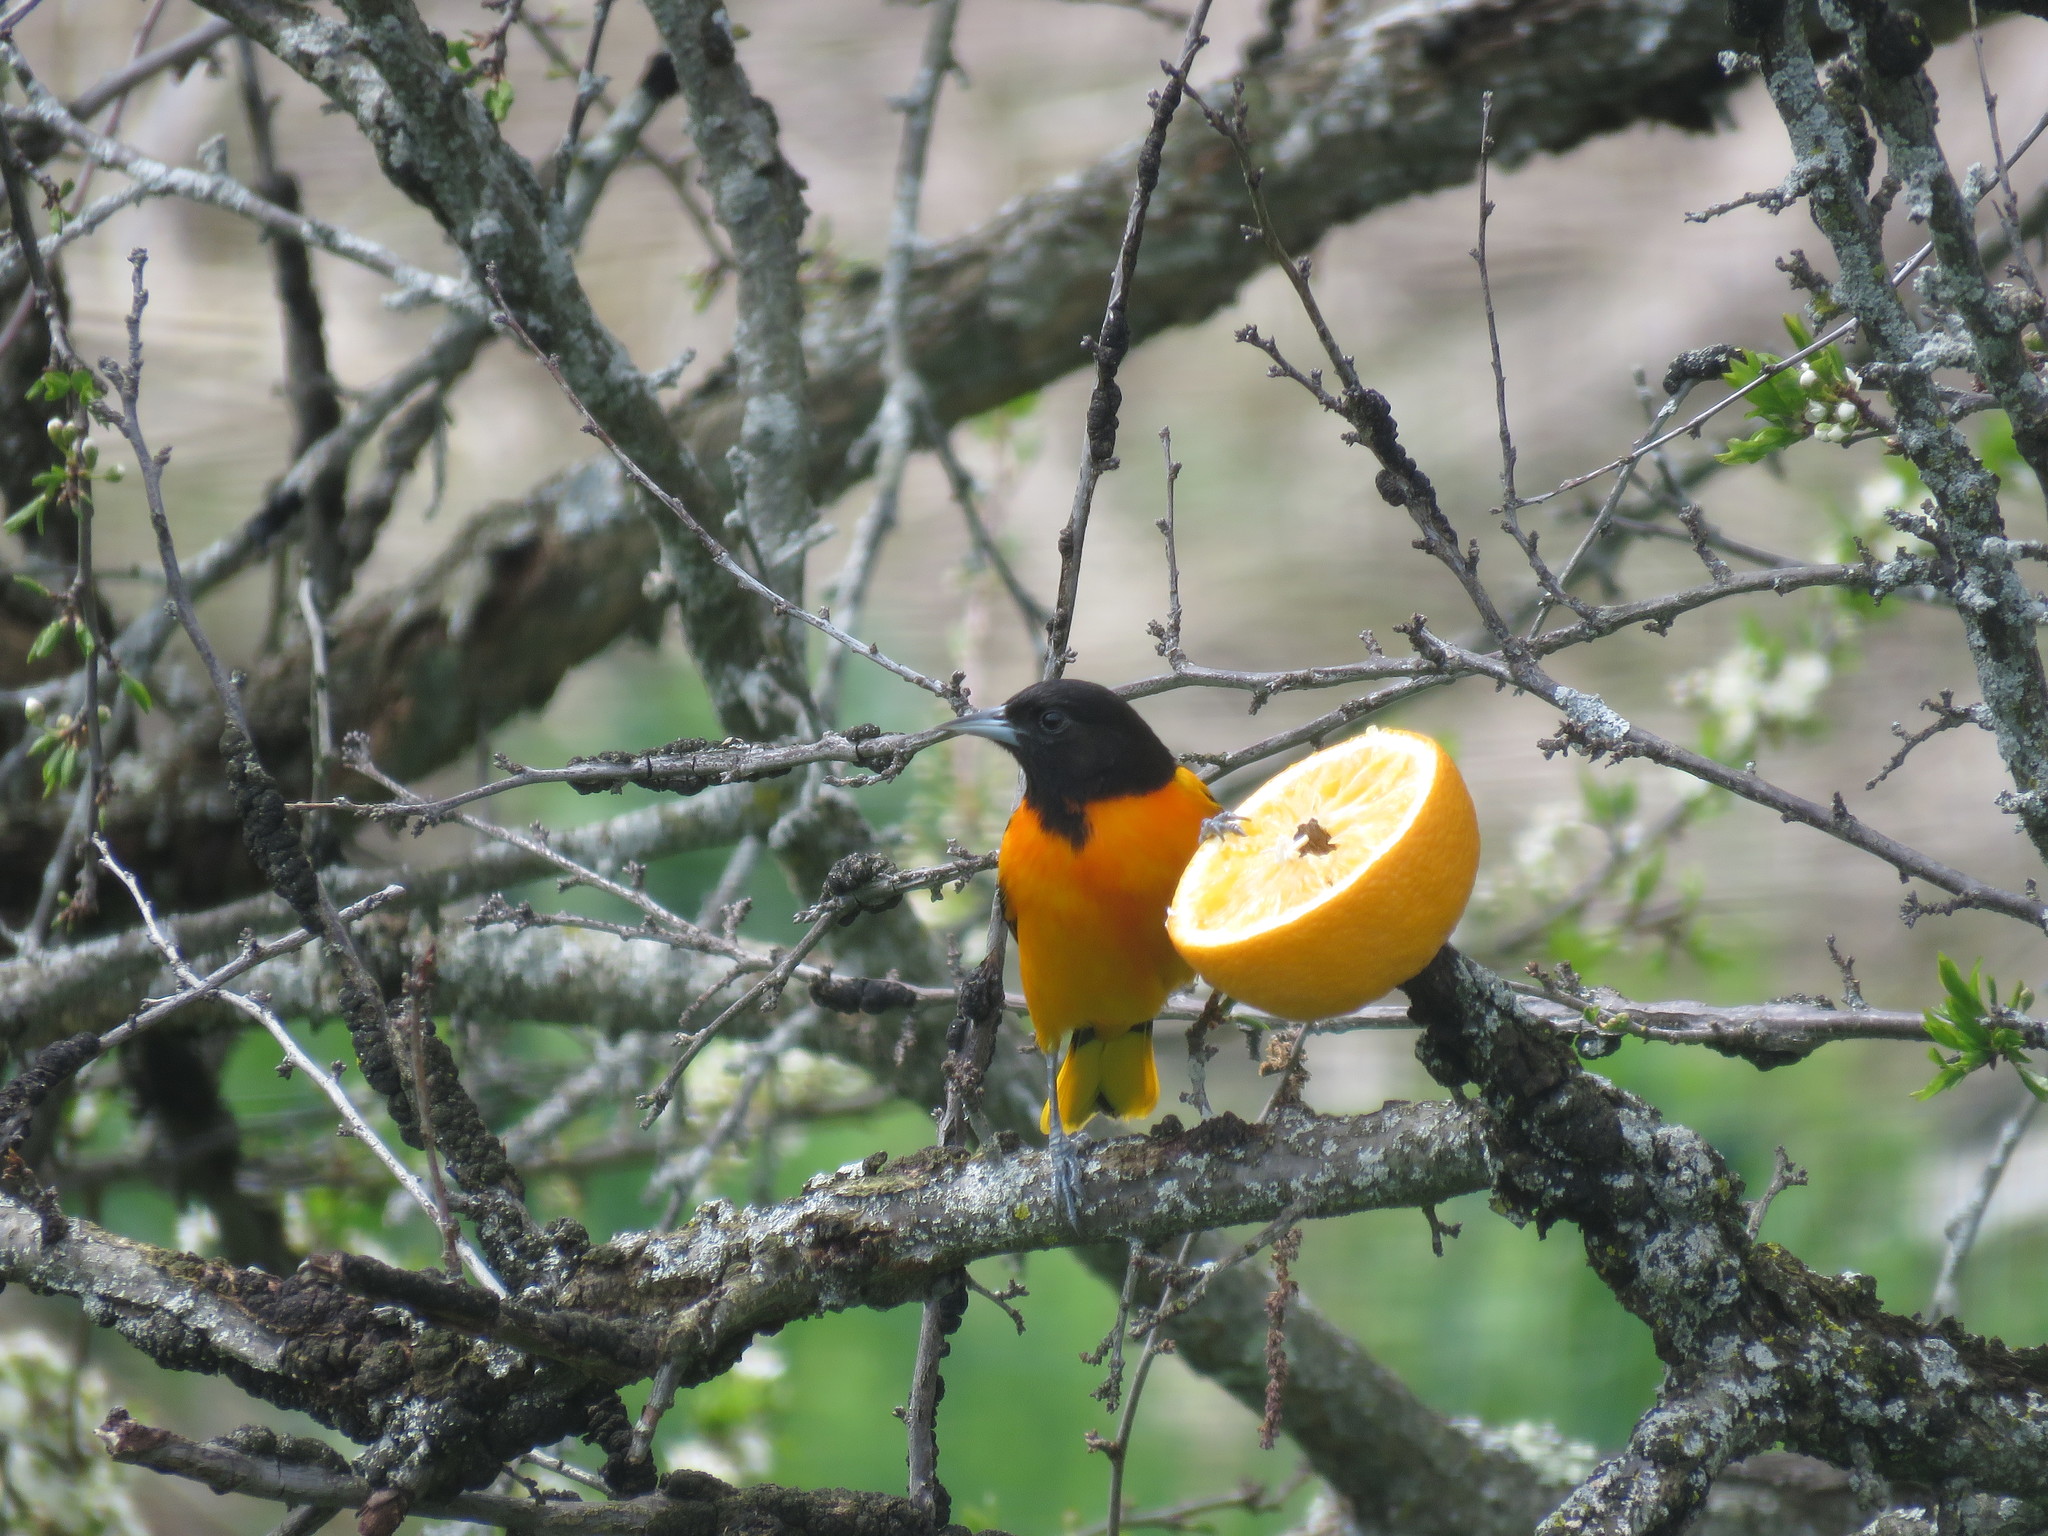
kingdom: Animalia
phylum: Chordata
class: Aves
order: Passeriformes
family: Icteridae
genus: Icterus
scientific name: Icterus galbula
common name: Baltimore oriole
